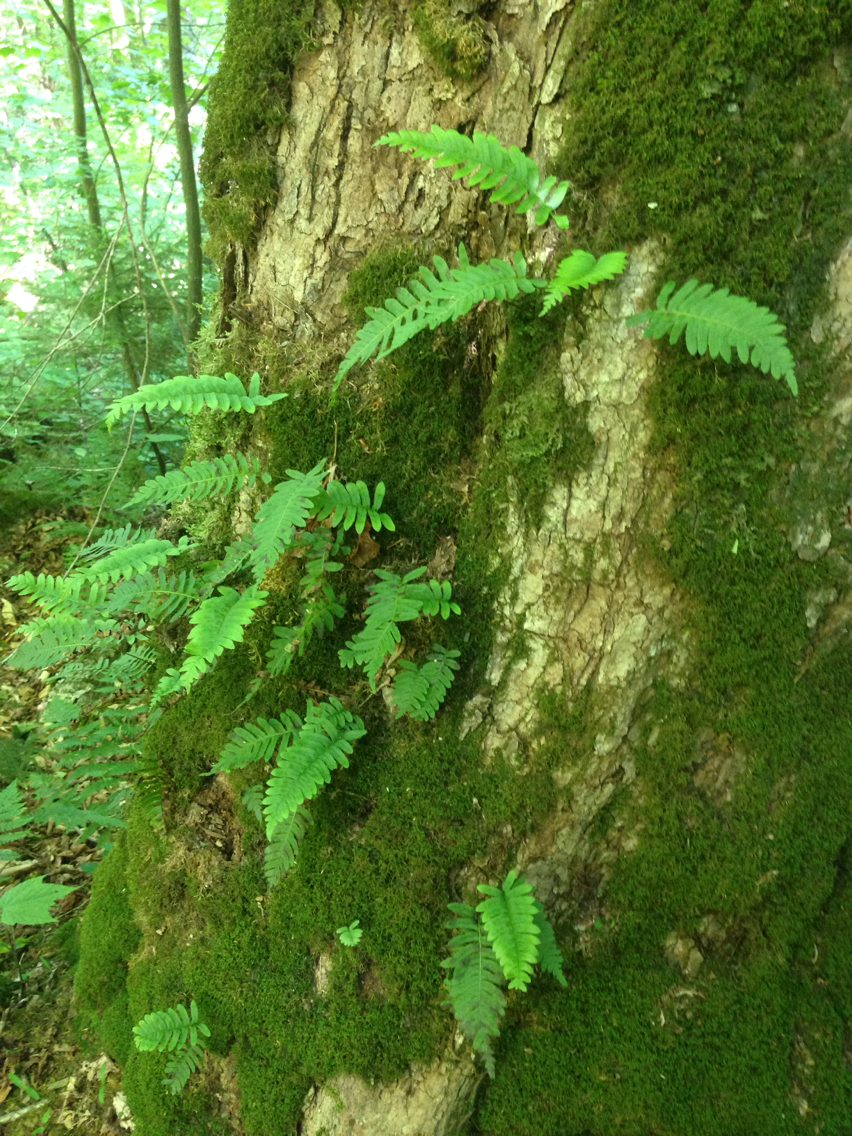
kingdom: Plantae
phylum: Tracheophyta
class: Polypodiopsida
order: Polypodiales
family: Polypodiaceae
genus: Polypodium
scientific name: Polypodium virginianum
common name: American wall fern
